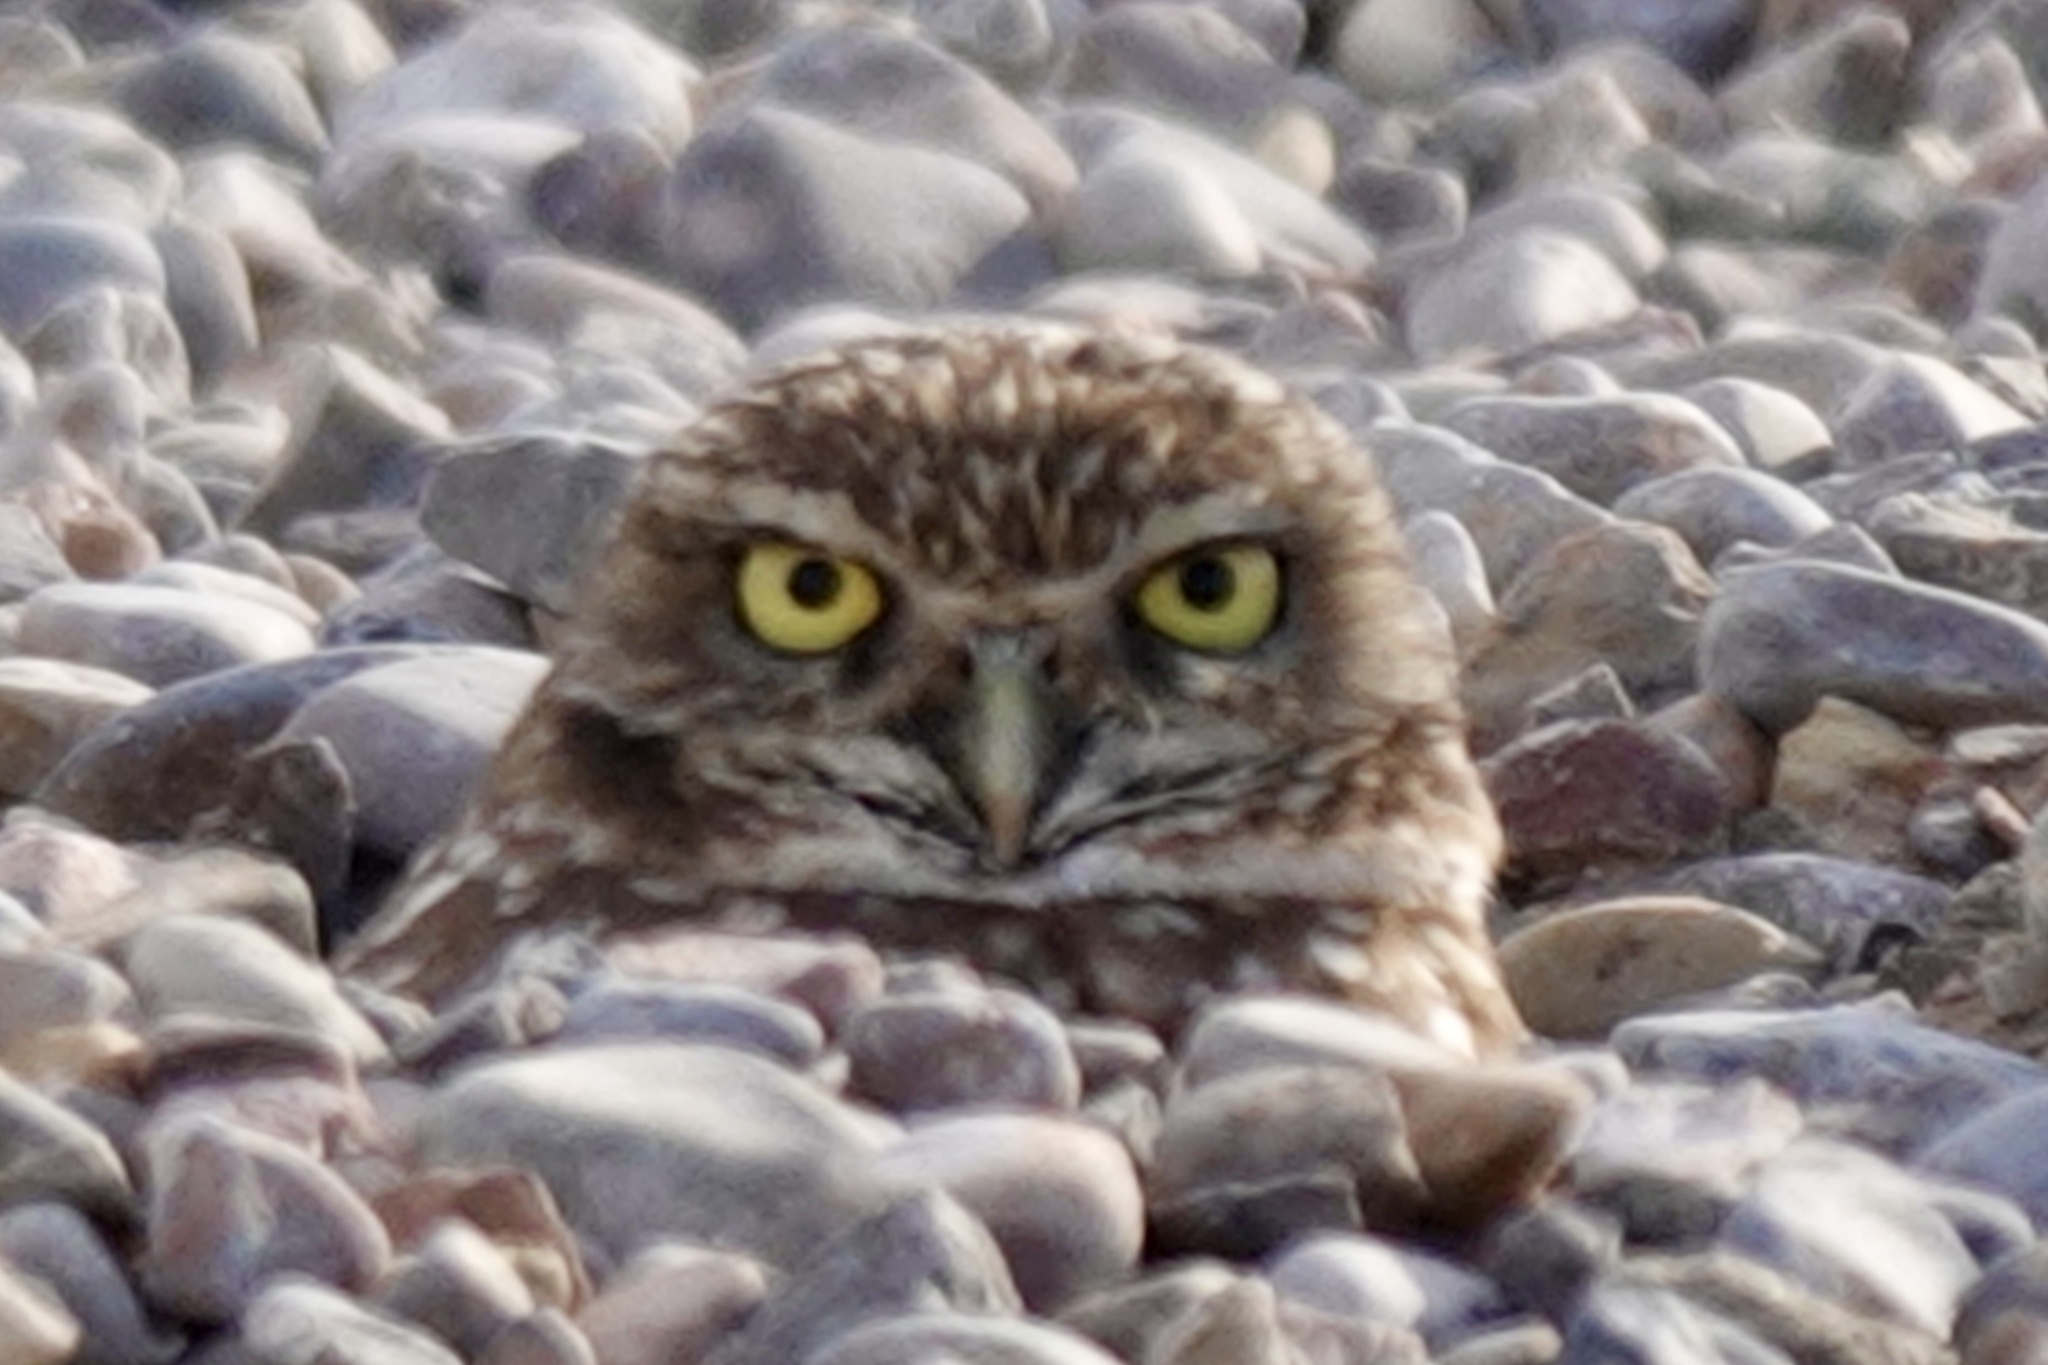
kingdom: Animalia
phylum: Chordata
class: Aves
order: Strigiformes
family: Strigidae
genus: Athene
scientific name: Athene cunicularia
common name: Burrowing owl
